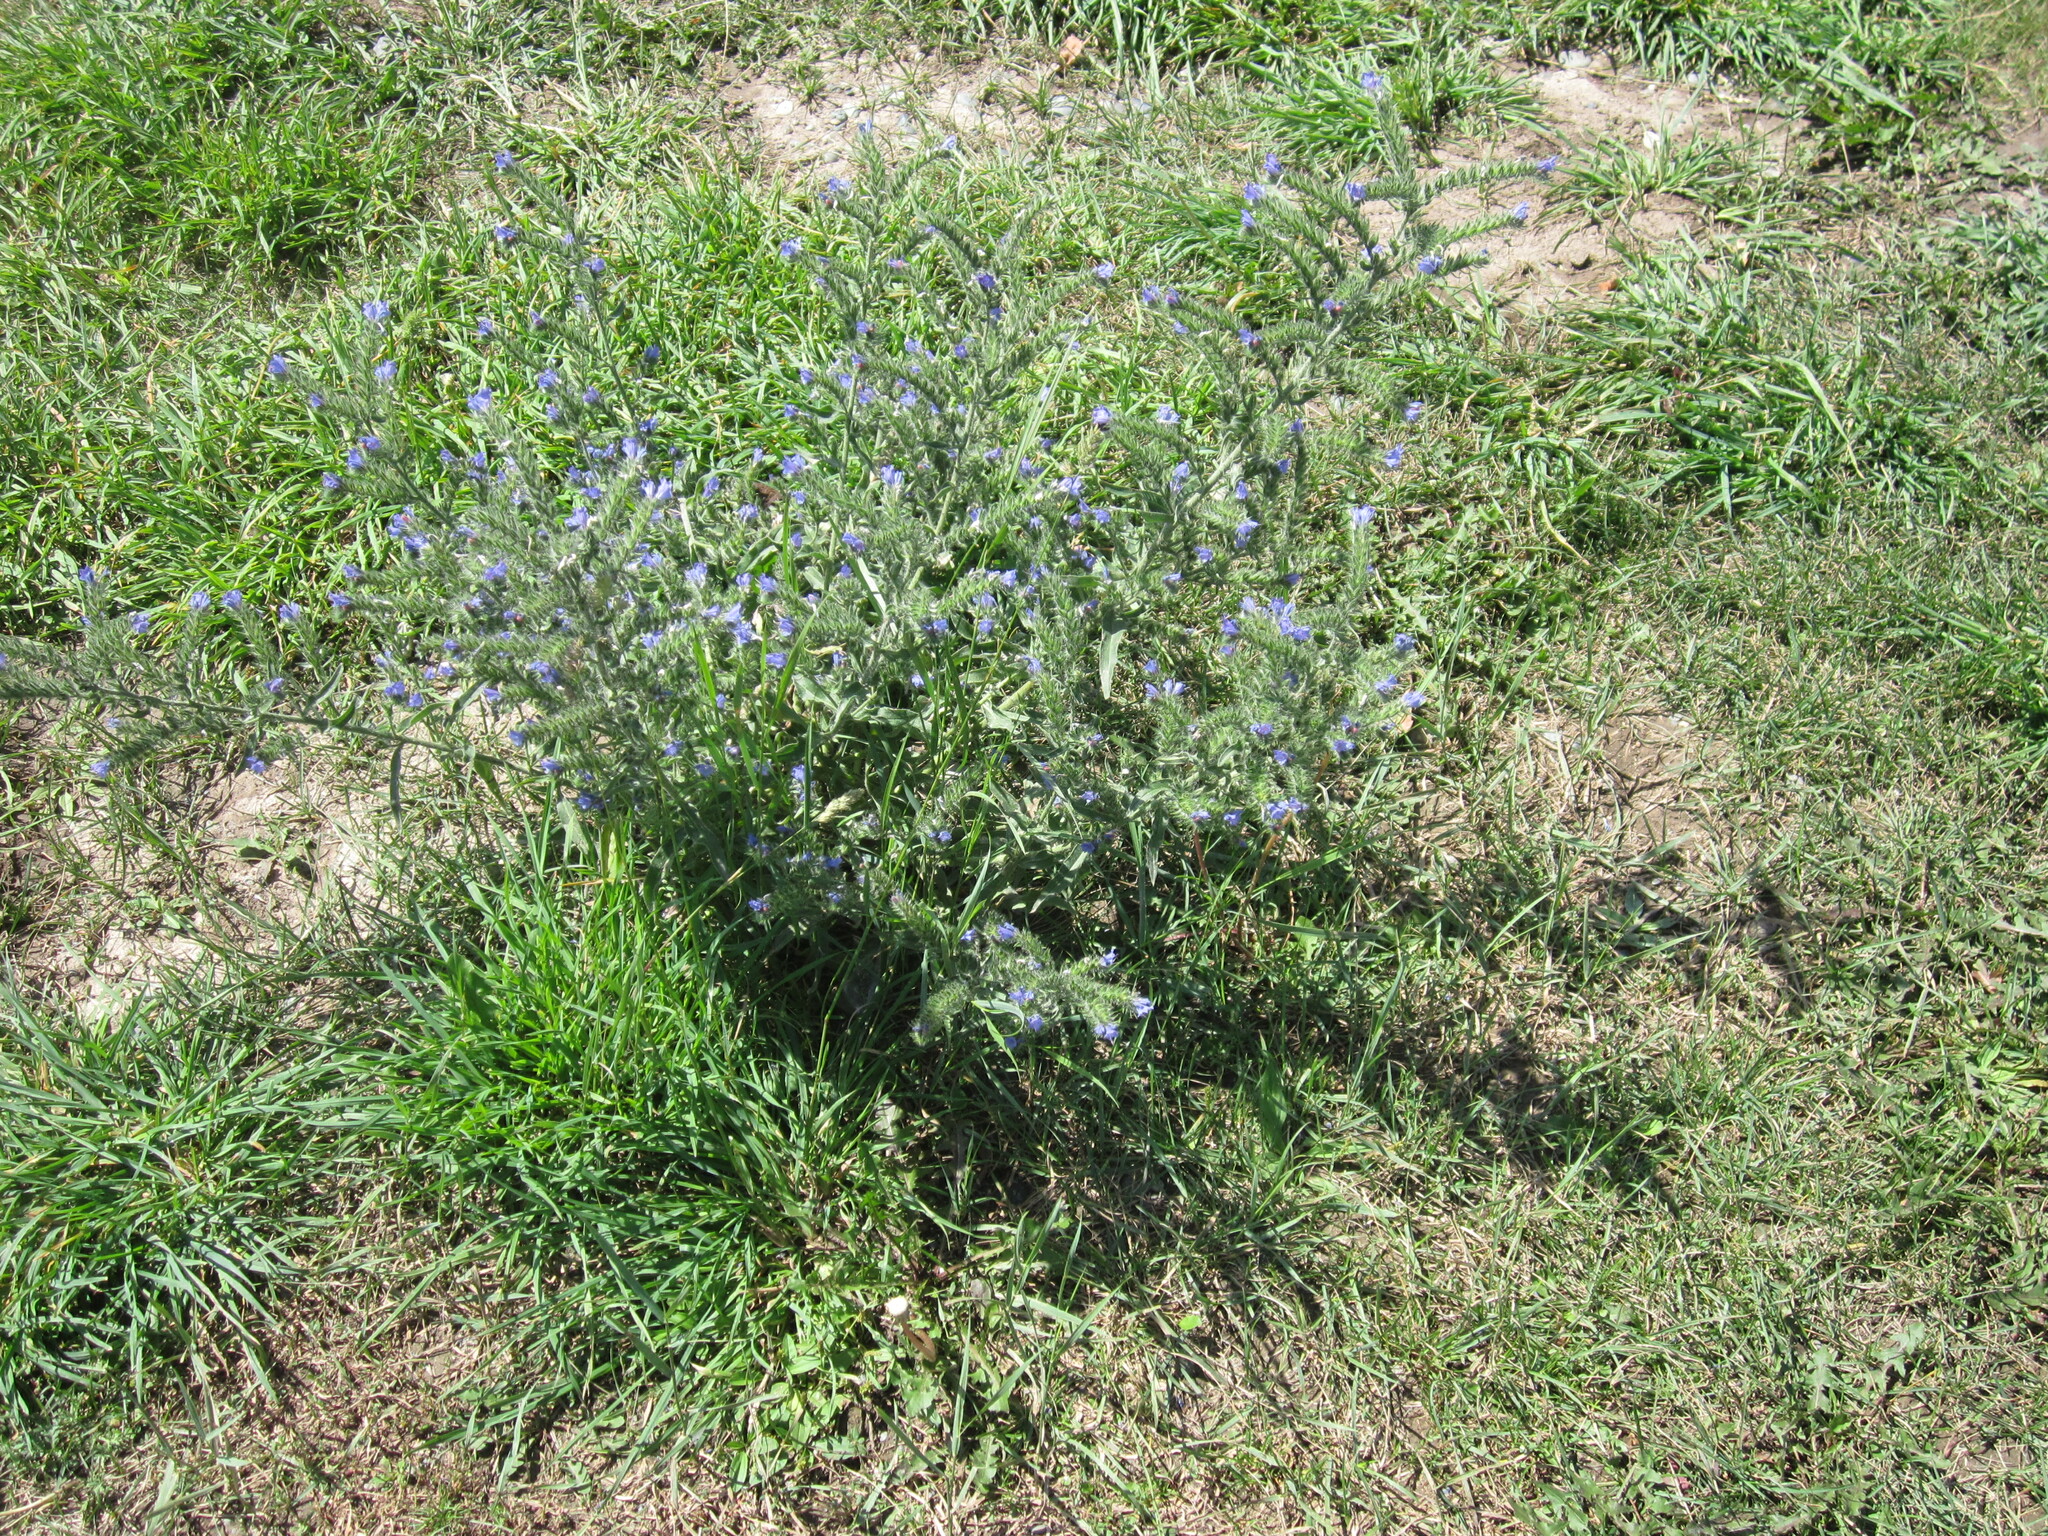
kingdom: Plantae
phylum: Tracheophyta
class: Magnoliopsida
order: Boraginales
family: Boraginaceae
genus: Echium
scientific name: Echium vulgare
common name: Common viper's bugloss
